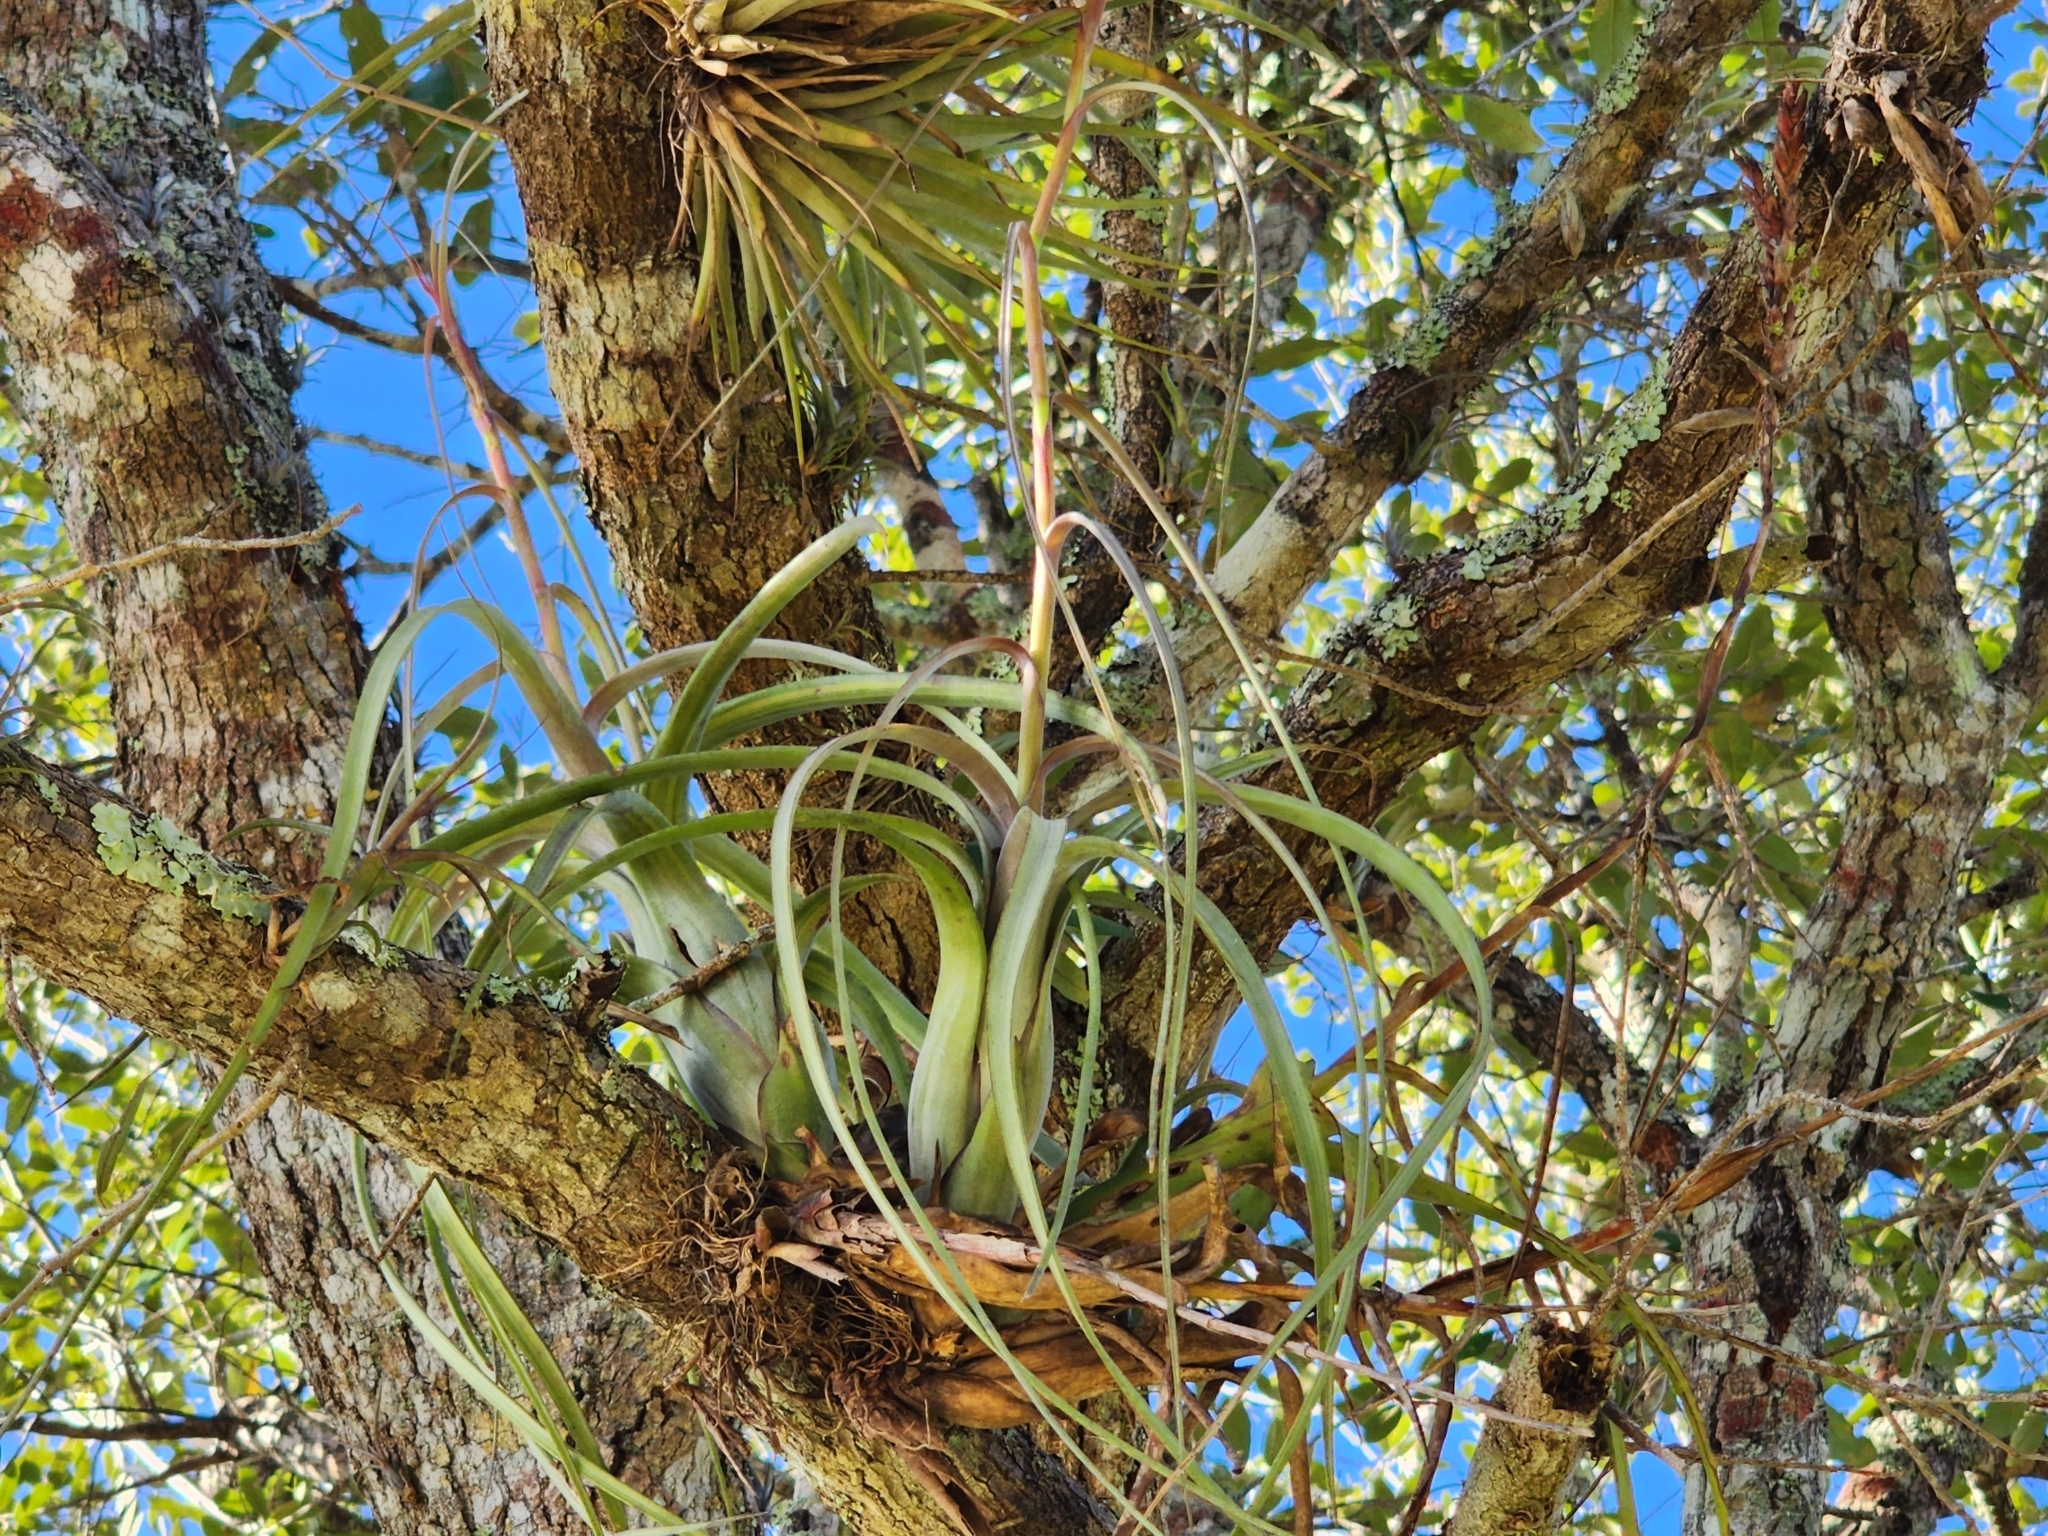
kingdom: Plantae
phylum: Tracheophyta
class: Liliopsida
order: Poales
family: Bromeliaceae
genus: Tillandsia
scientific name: Tillandsia balbisiana
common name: Northern needleleaf
